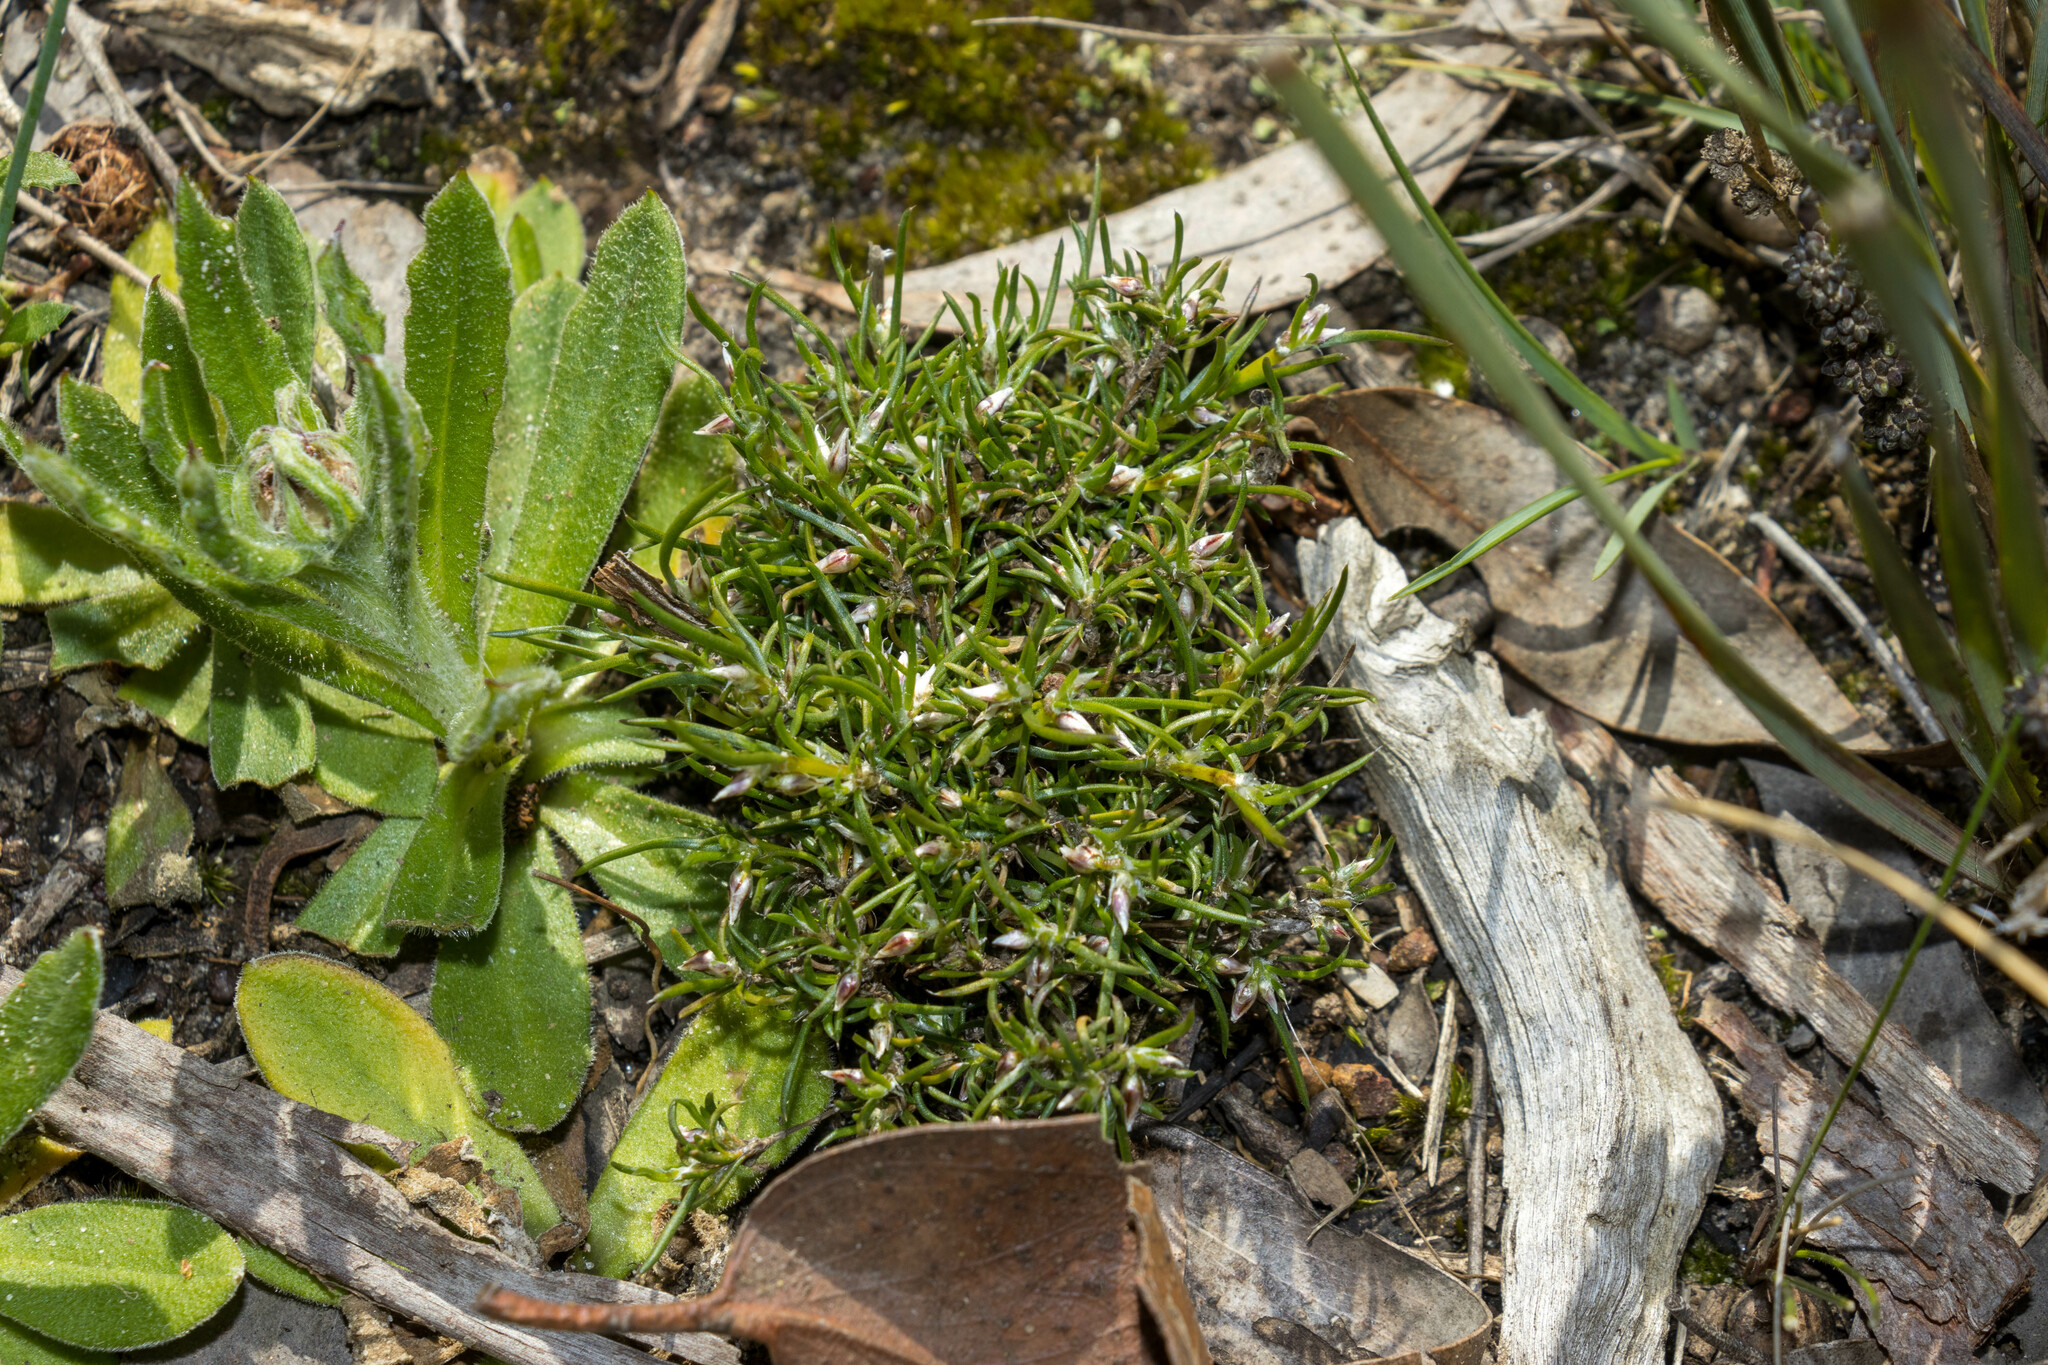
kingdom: Plantae
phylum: Tracheophyta
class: Liliopsida
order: Asparagales
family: Asparagaceae
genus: Laxmannia
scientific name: Laxmannia orientalis
